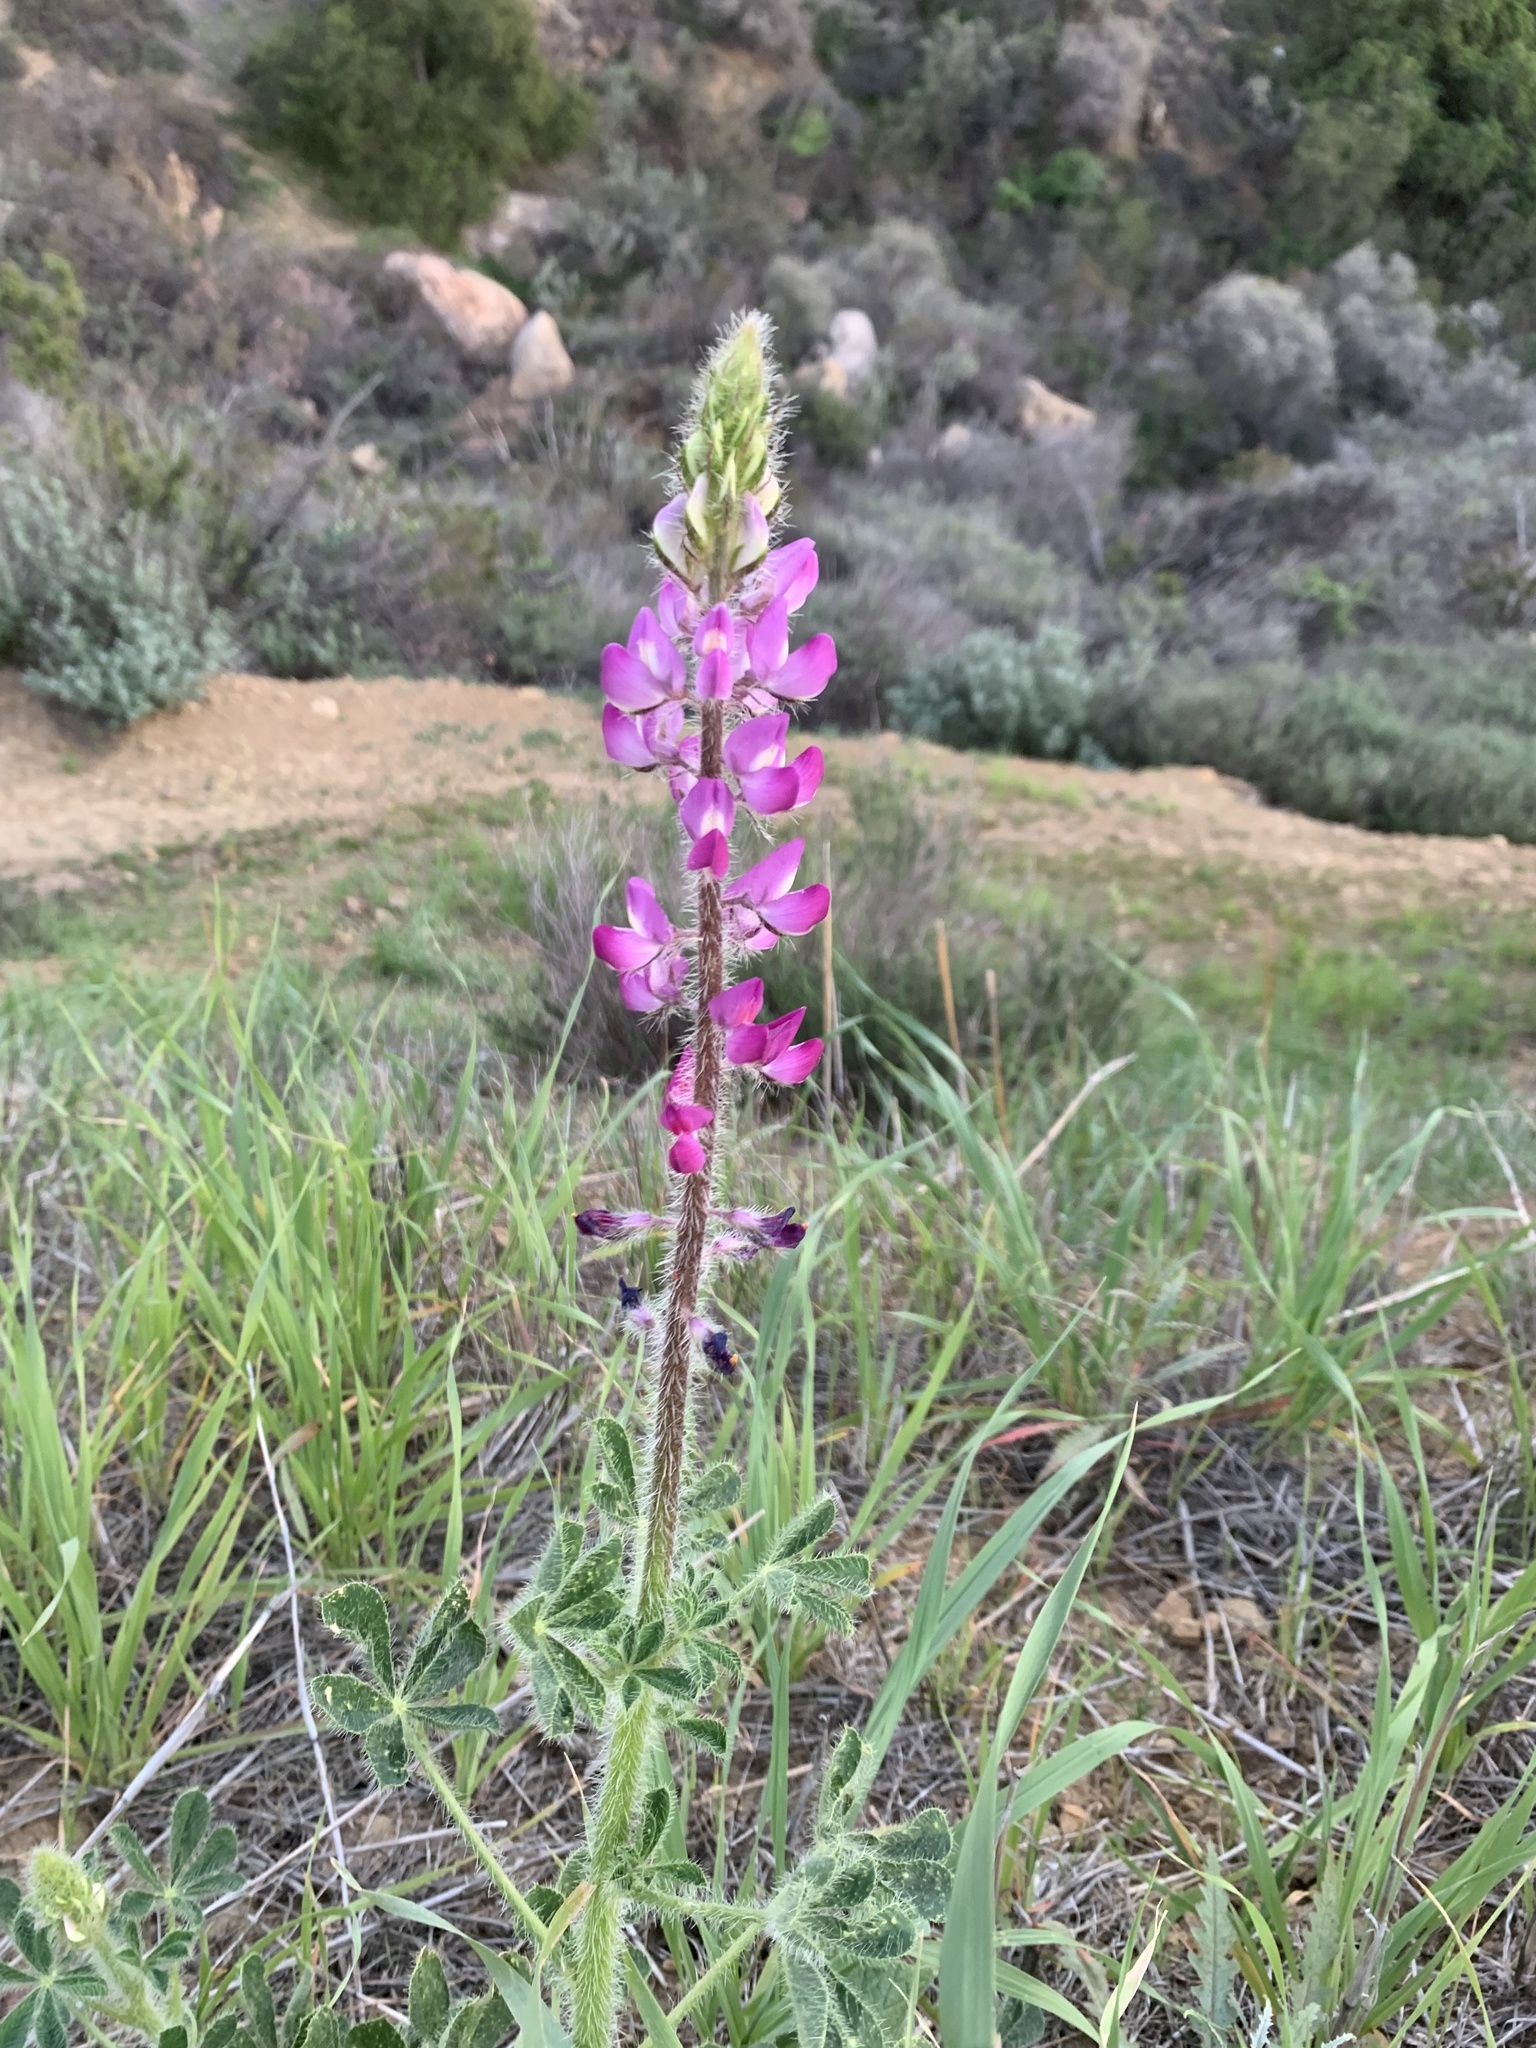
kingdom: Plantae
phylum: Tracheophyta
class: Magnoliopsida
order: Fabales
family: Fabaceae
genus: Lupinus
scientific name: Lupinus hirsutissimus
